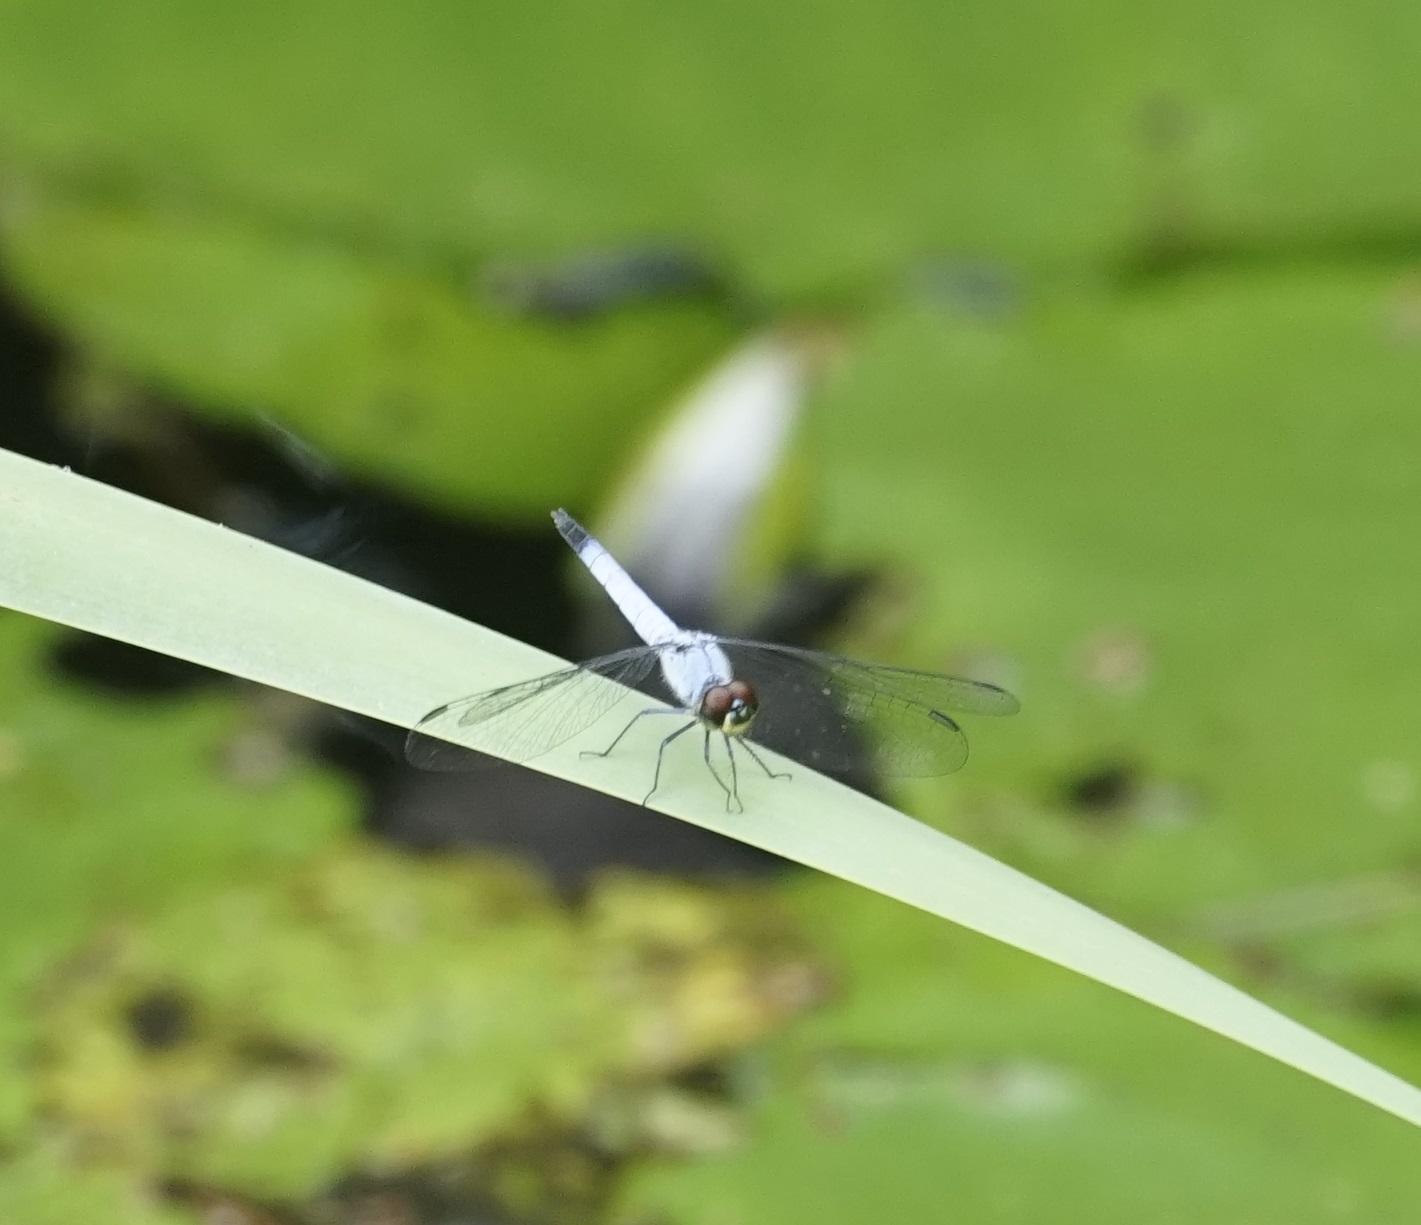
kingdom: Animalia
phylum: Arthropoda
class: Insecta
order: Odonata
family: Libellulidae
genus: Brachydiplax
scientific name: Brachydiplax denticauda
